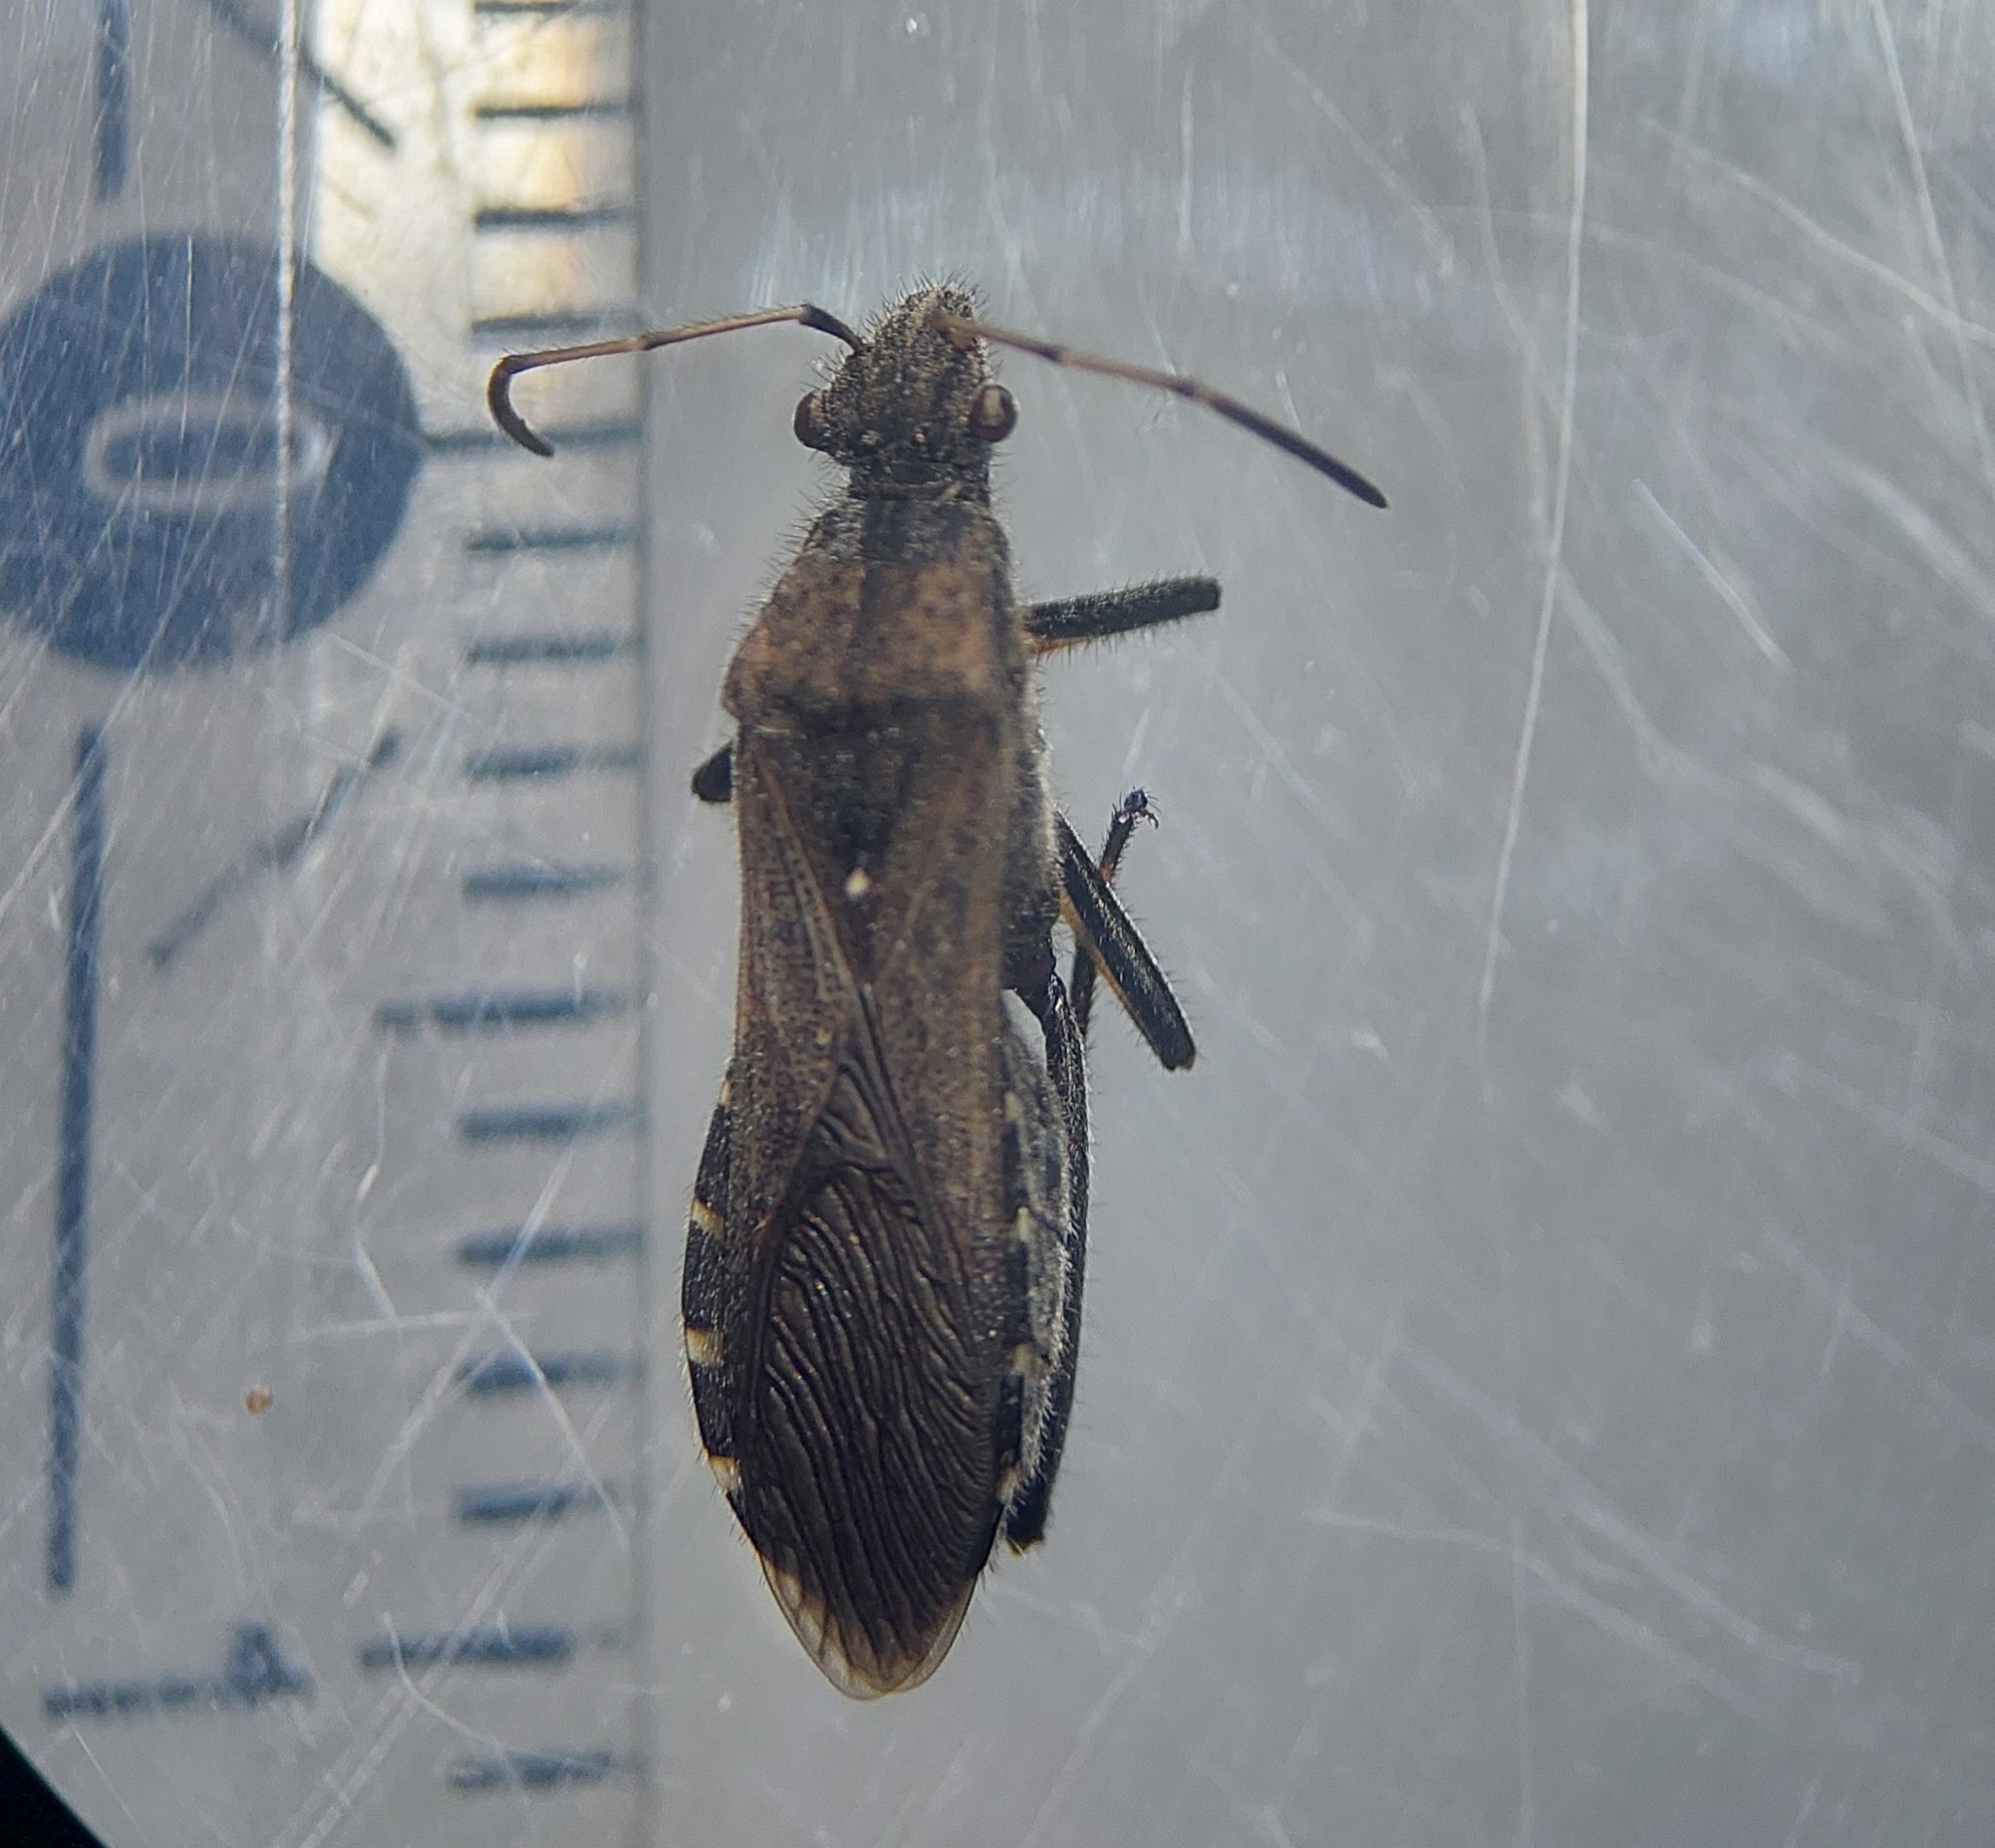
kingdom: Animalia
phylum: Arthropoda
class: Insecta
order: Hemiptera
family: Alydidae
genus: Alydus
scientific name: Alydus calcaratus
